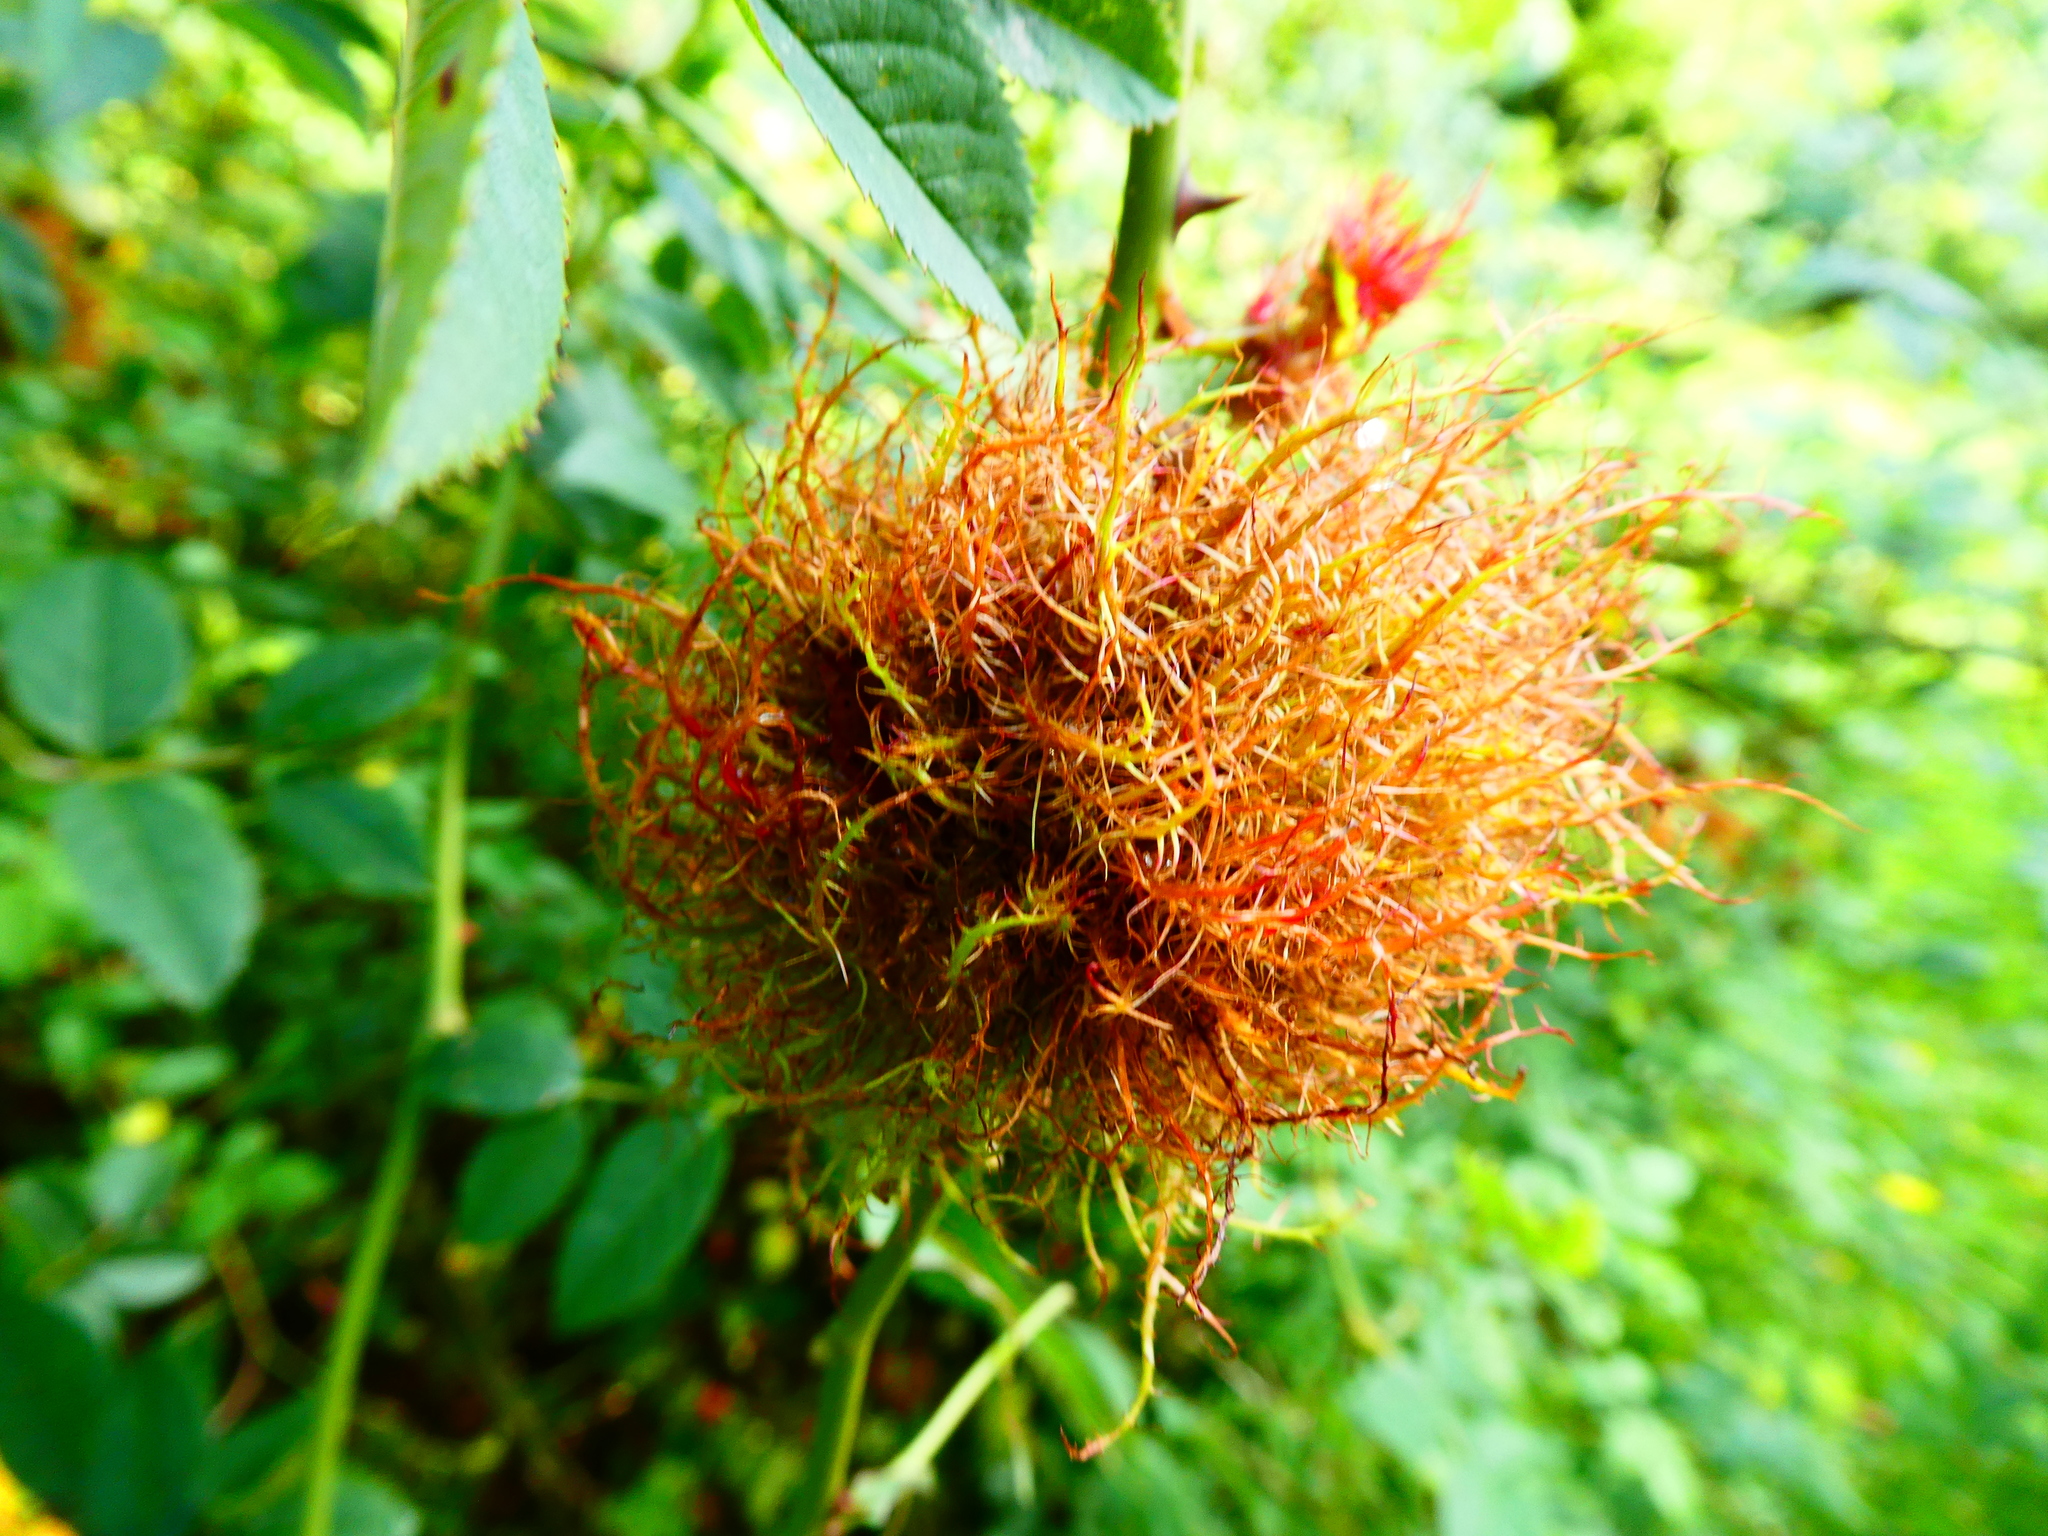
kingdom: Animalia
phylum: Arthropoda
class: Insecta
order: Hymenoptera
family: Cynipidae
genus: Diplolepis
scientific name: Diplolepis rosae
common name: Bedeguar gall
